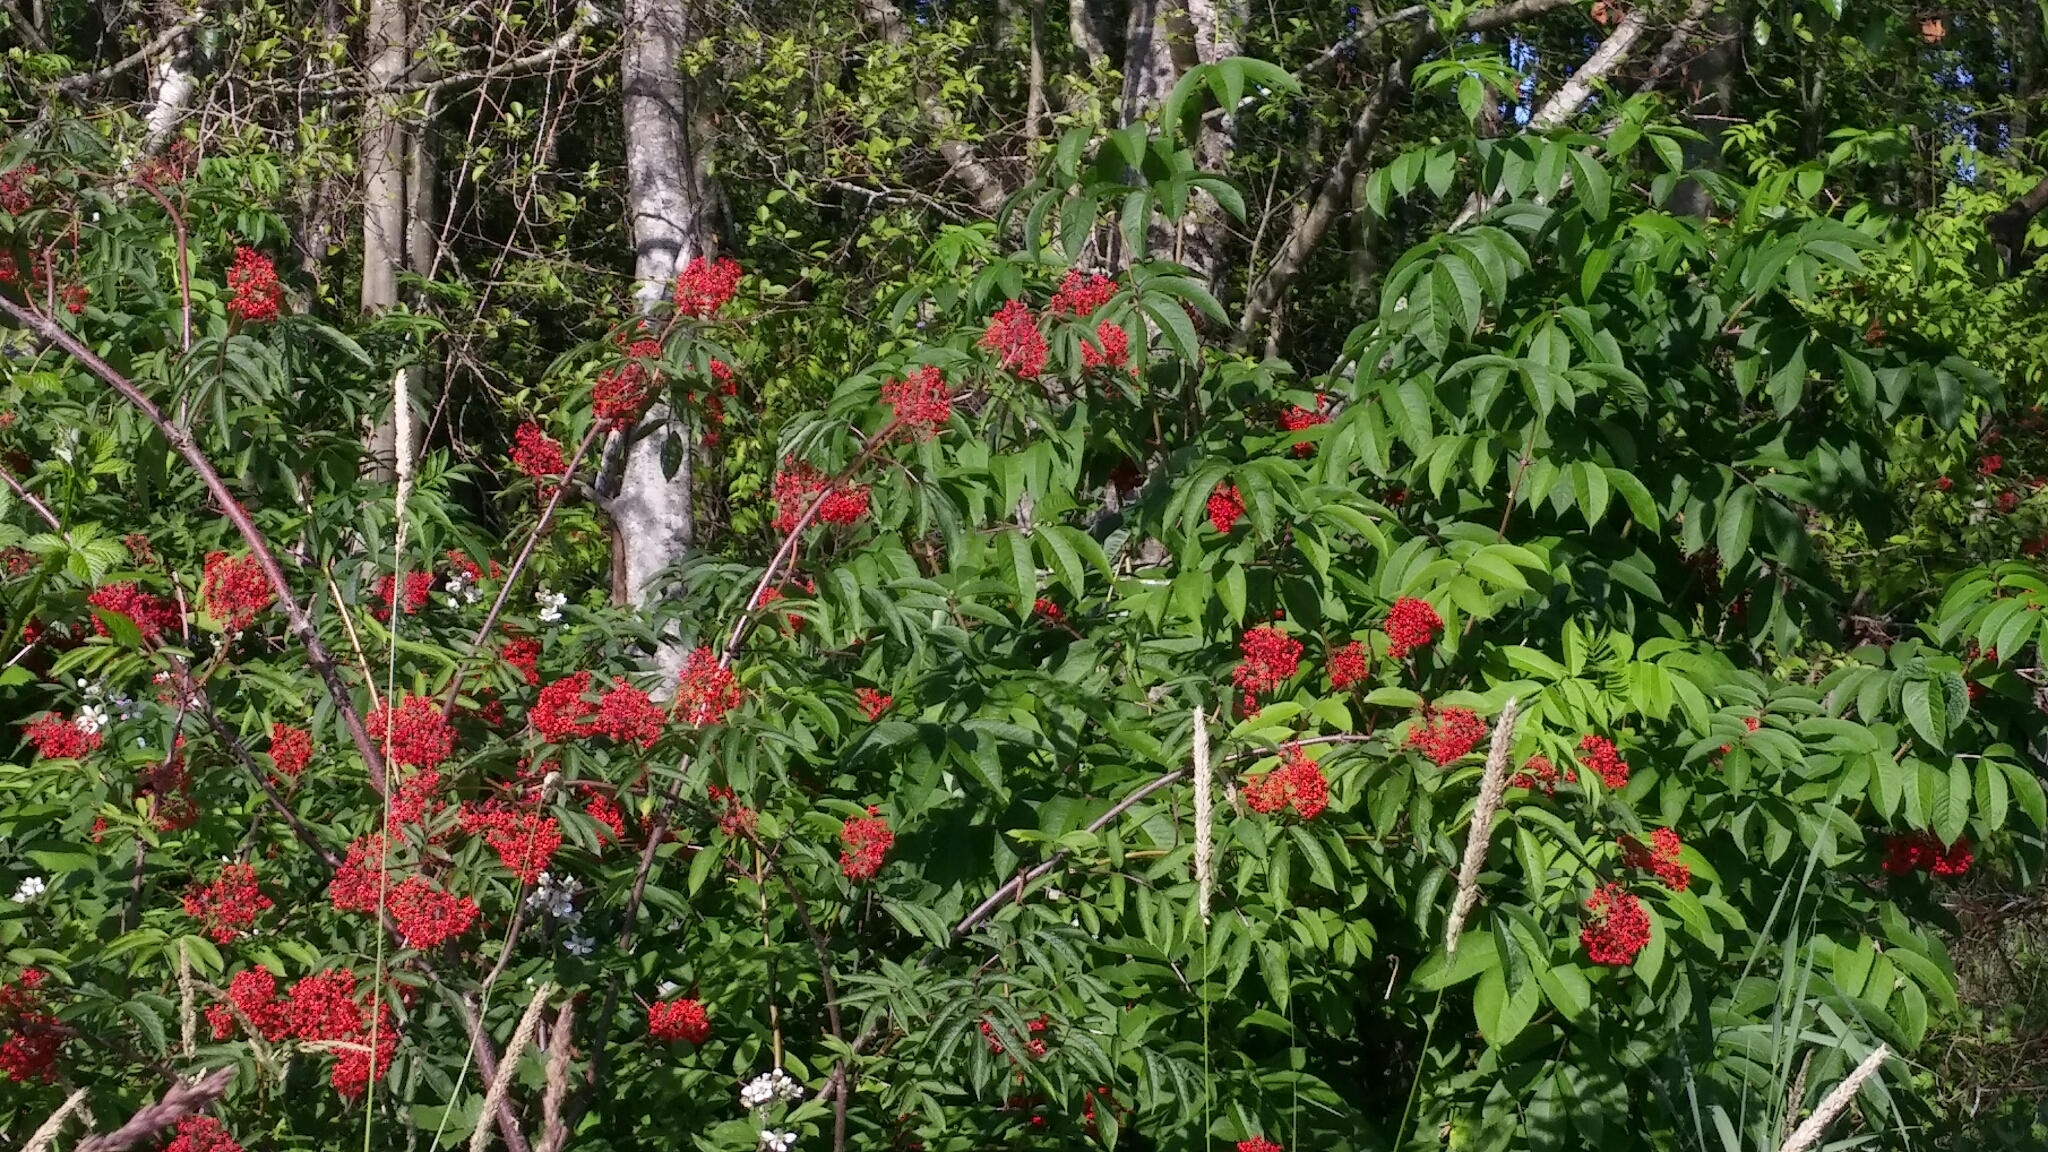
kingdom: Plantae
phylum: Tracheophyta
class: Magnoliopsida
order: Dipsacales
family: Viburnaceae
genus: Sambucus
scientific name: Sambucus racemosa
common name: Red-berried elder
